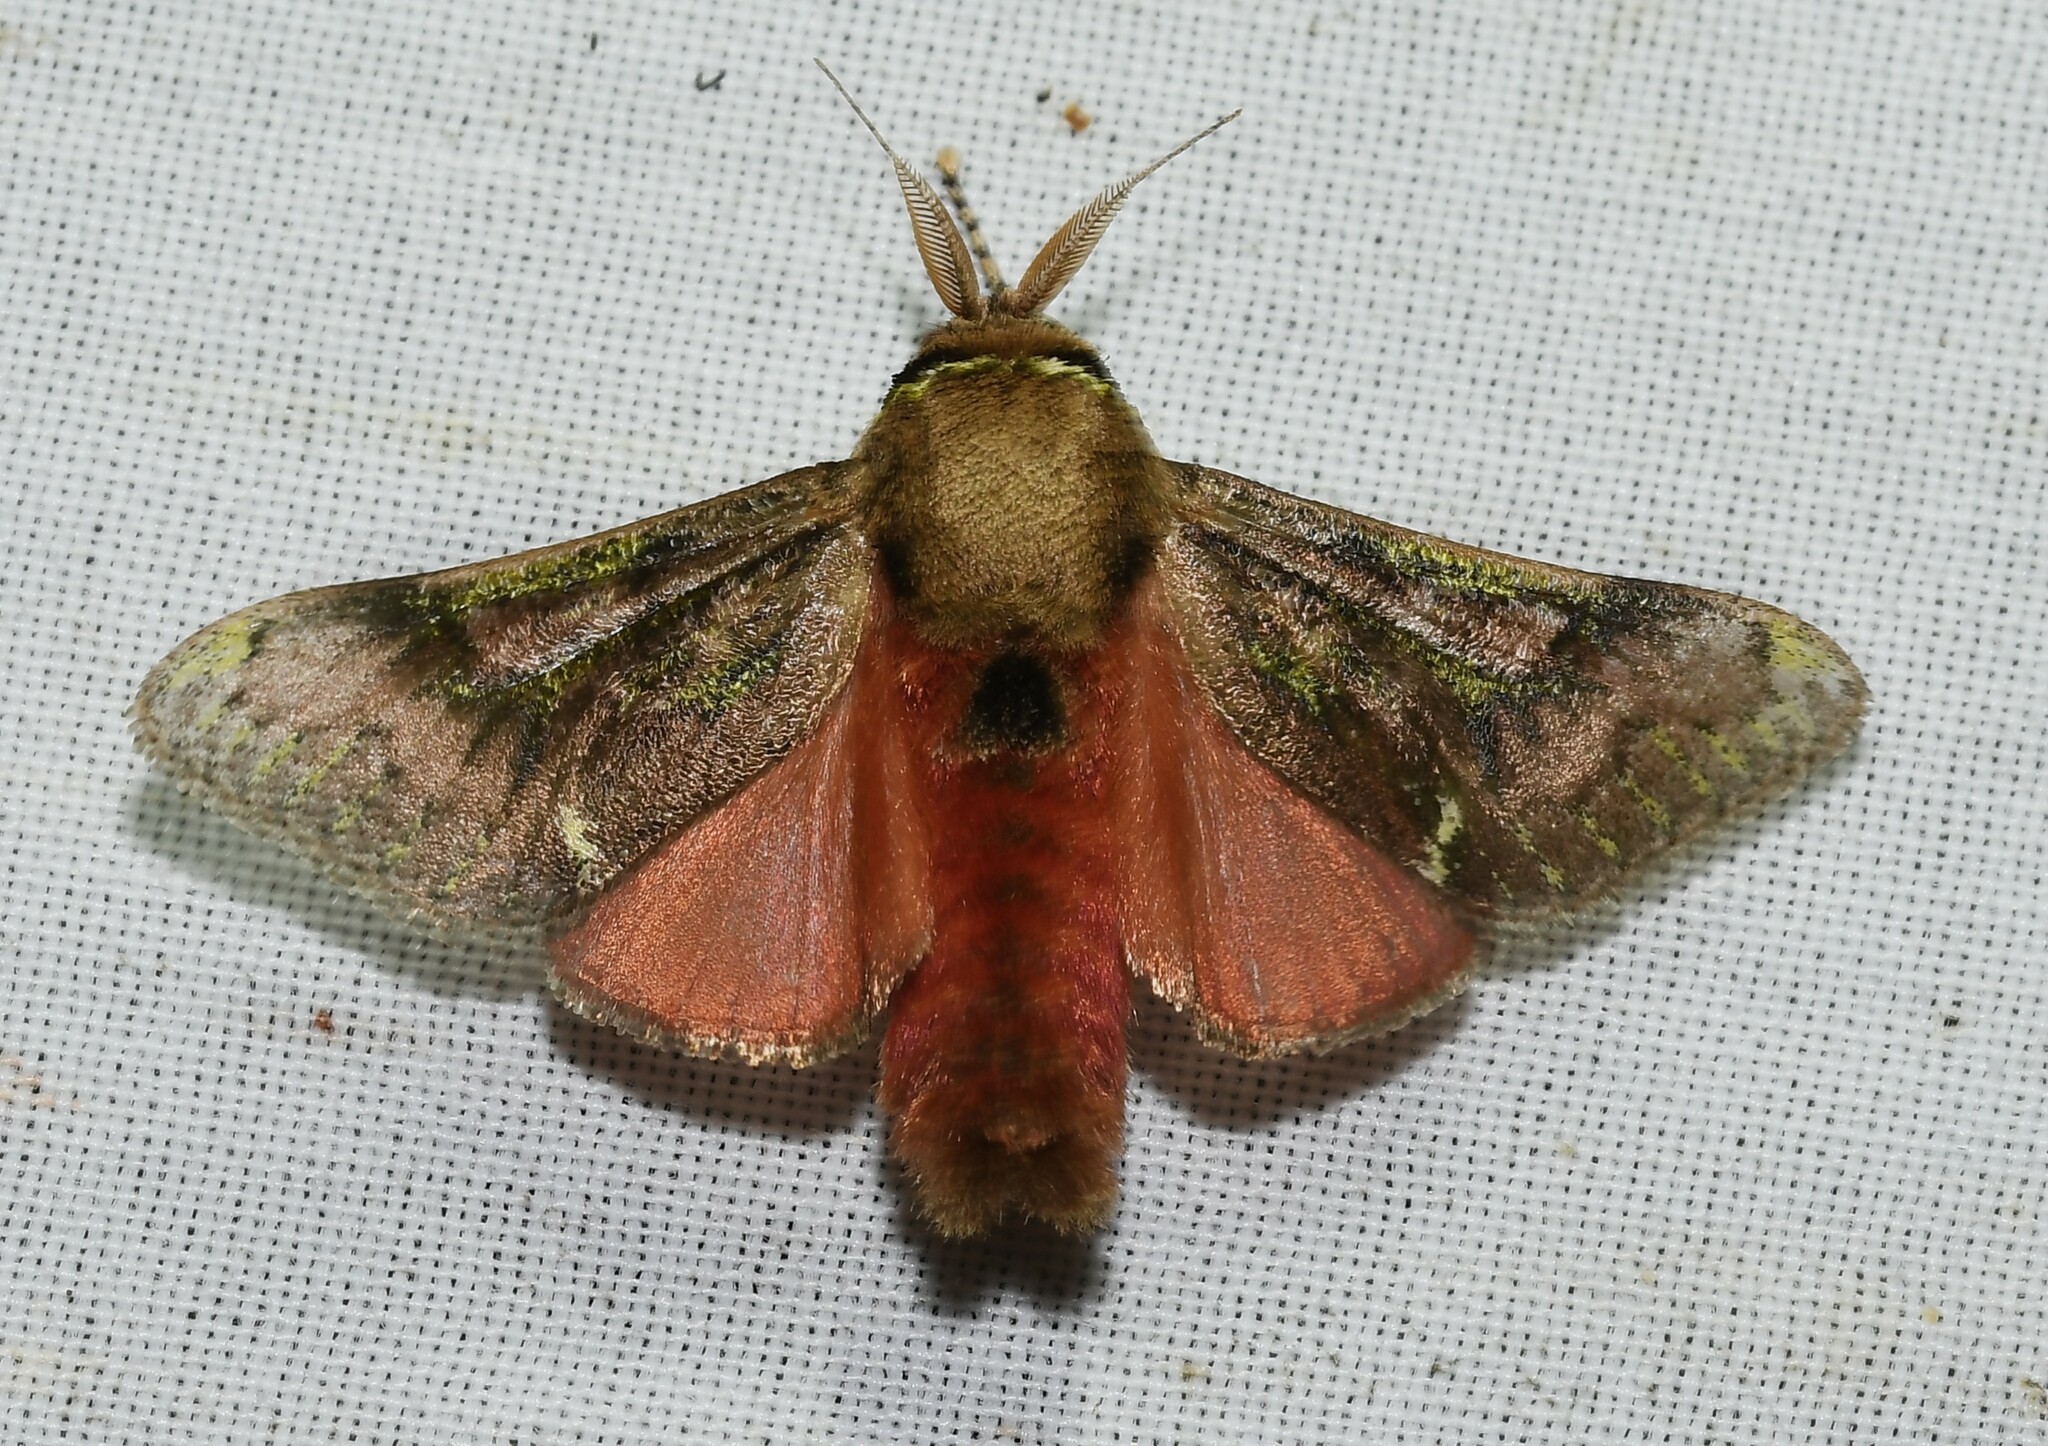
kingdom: Animalia
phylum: Arthropoda
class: Insecta
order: Lepidoptera
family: Aididae
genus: Aidos
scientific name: Aidos yamouna
